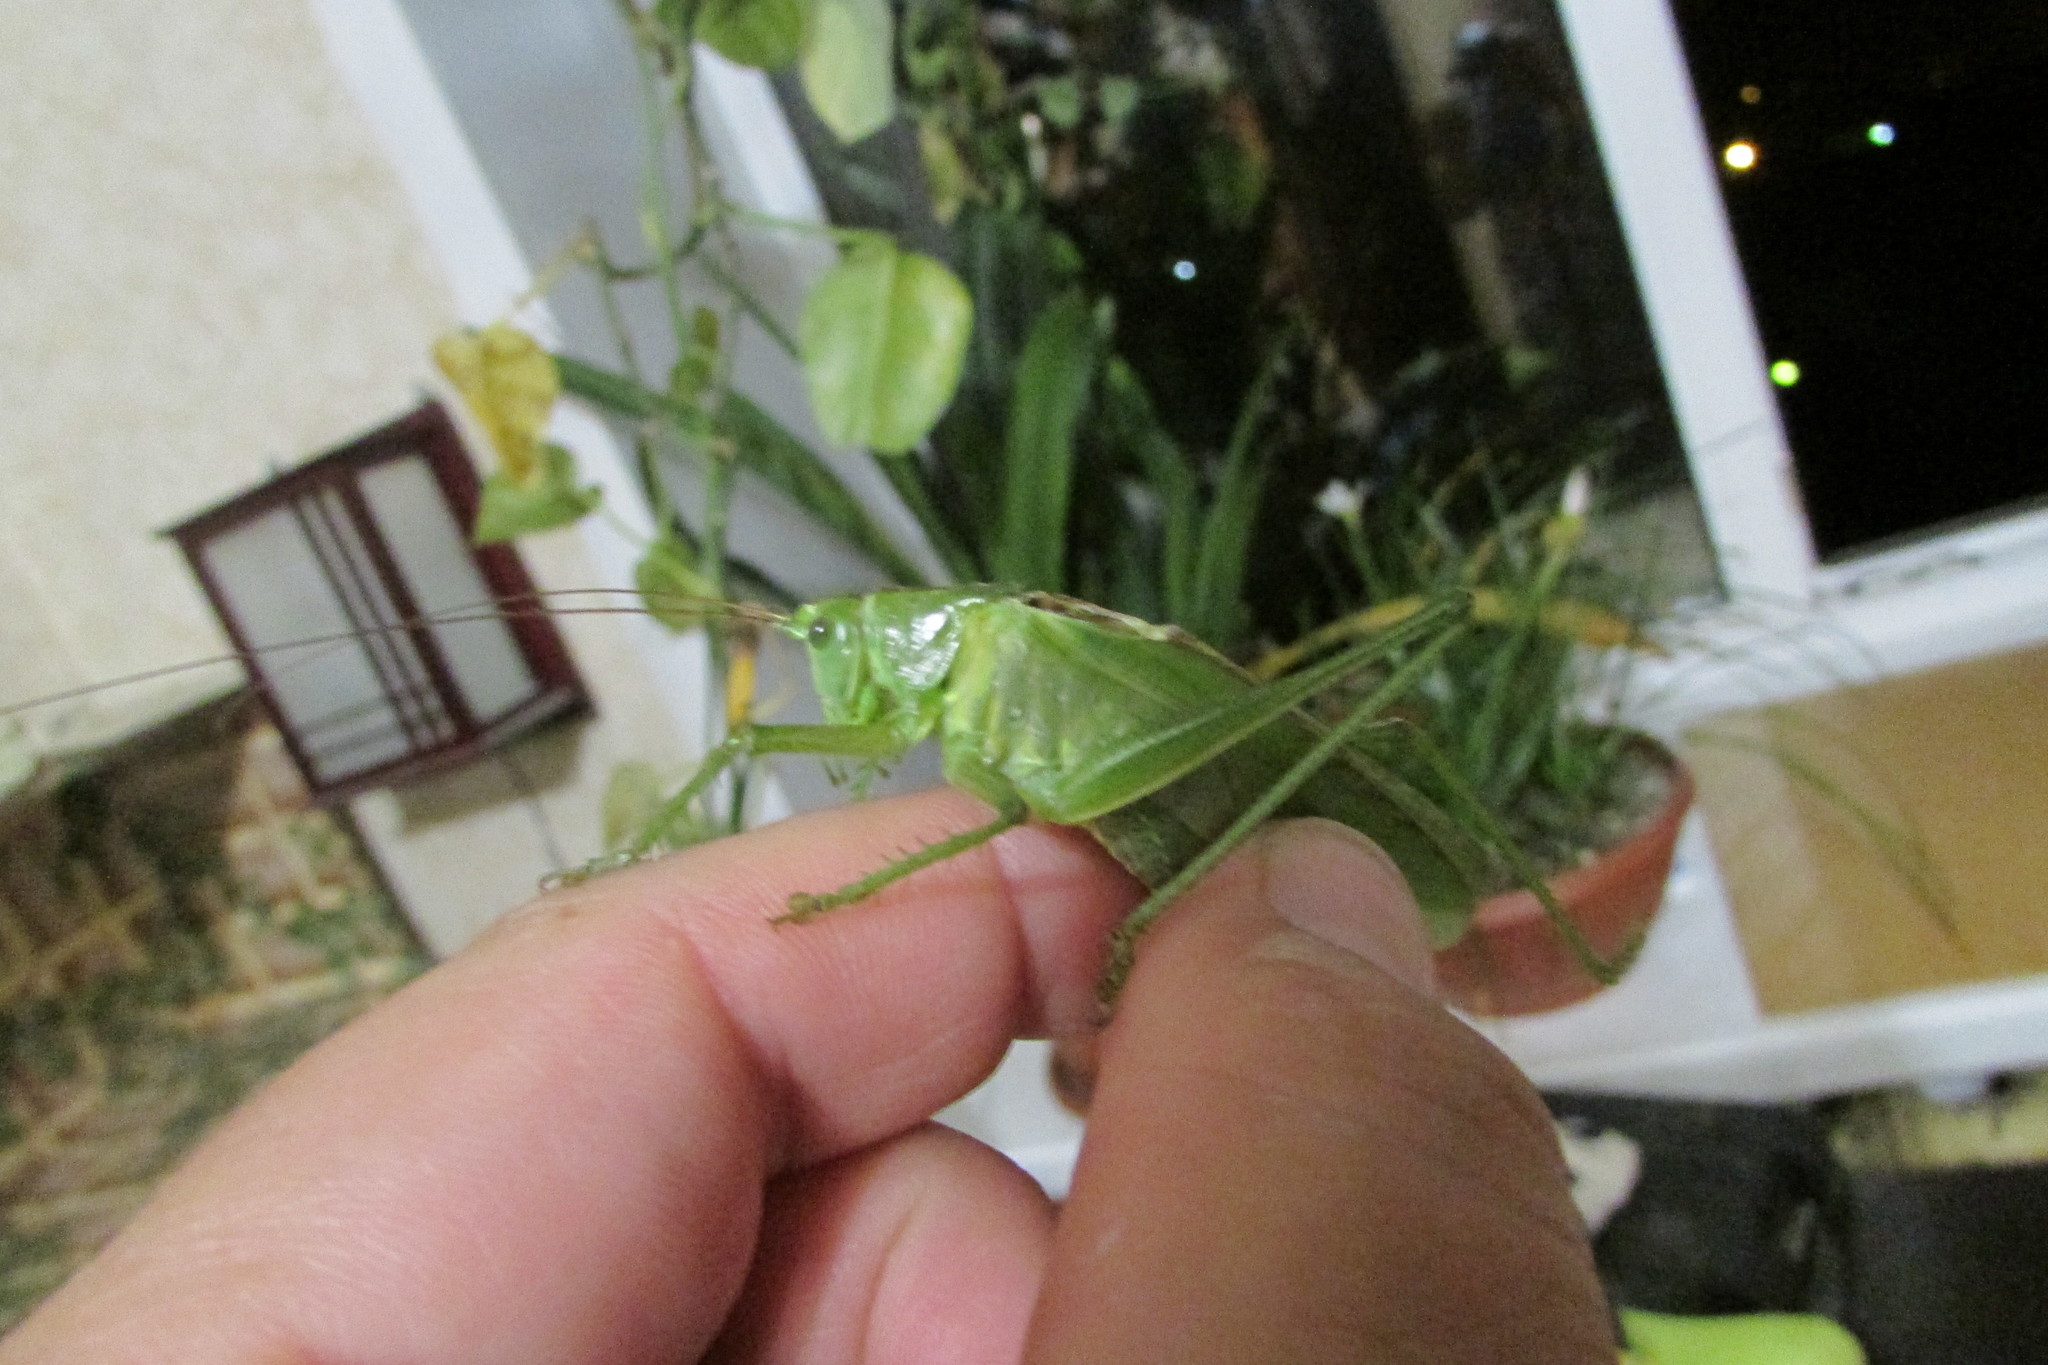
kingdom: Animalia
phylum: Arthropoda
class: Insecta
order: Orthoptera
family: Tettigoniidae
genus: Tettigonia
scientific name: Tettigonia viridissima
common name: Great green bush-cricket
